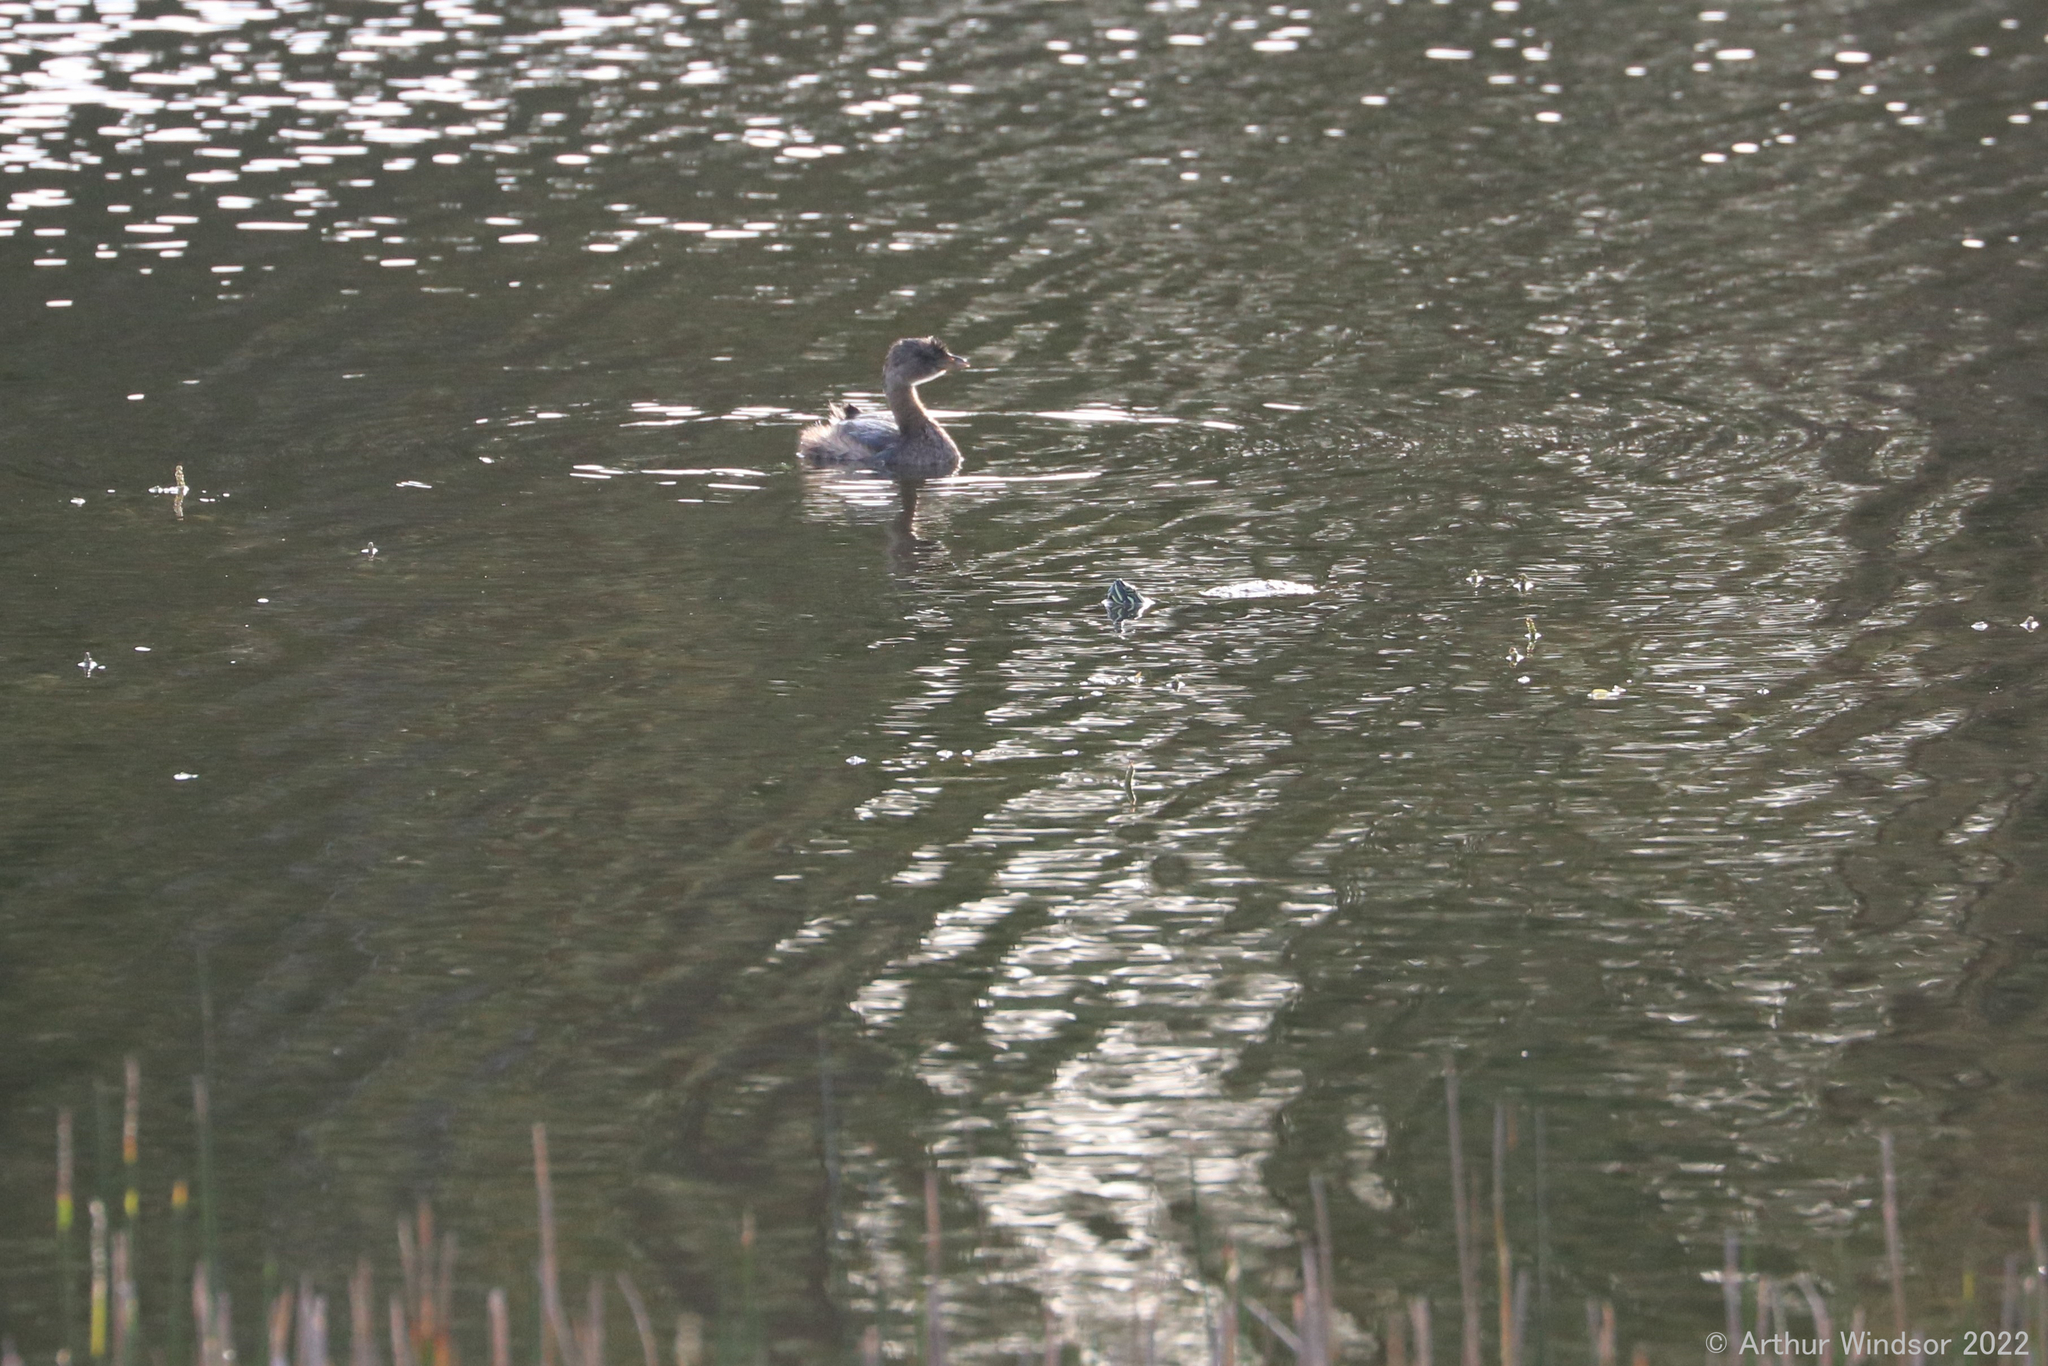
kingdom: Animalia
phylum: Chordata
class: Aves
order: Podicipediformes
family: Podicipedidae
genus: Podilymbus
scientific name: Podilymbus podiceps
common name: Pied-billed grebe
